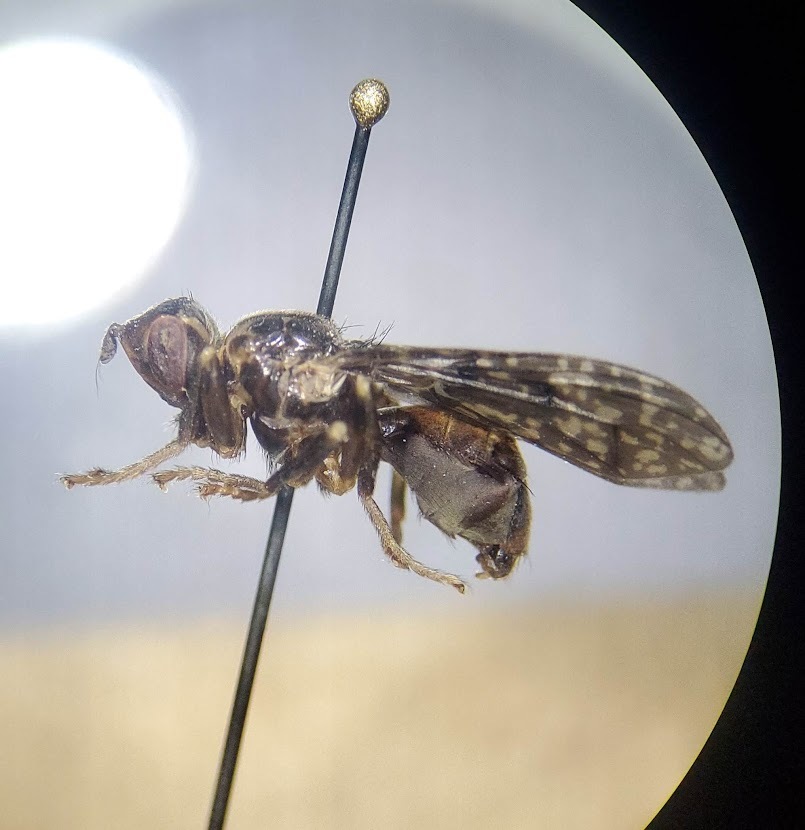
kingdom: Animalia
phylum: Arthropoda
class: Insecta
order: Diptera
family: Pyrgotidae
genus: Pyrgota
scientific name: Pyrgota valida
